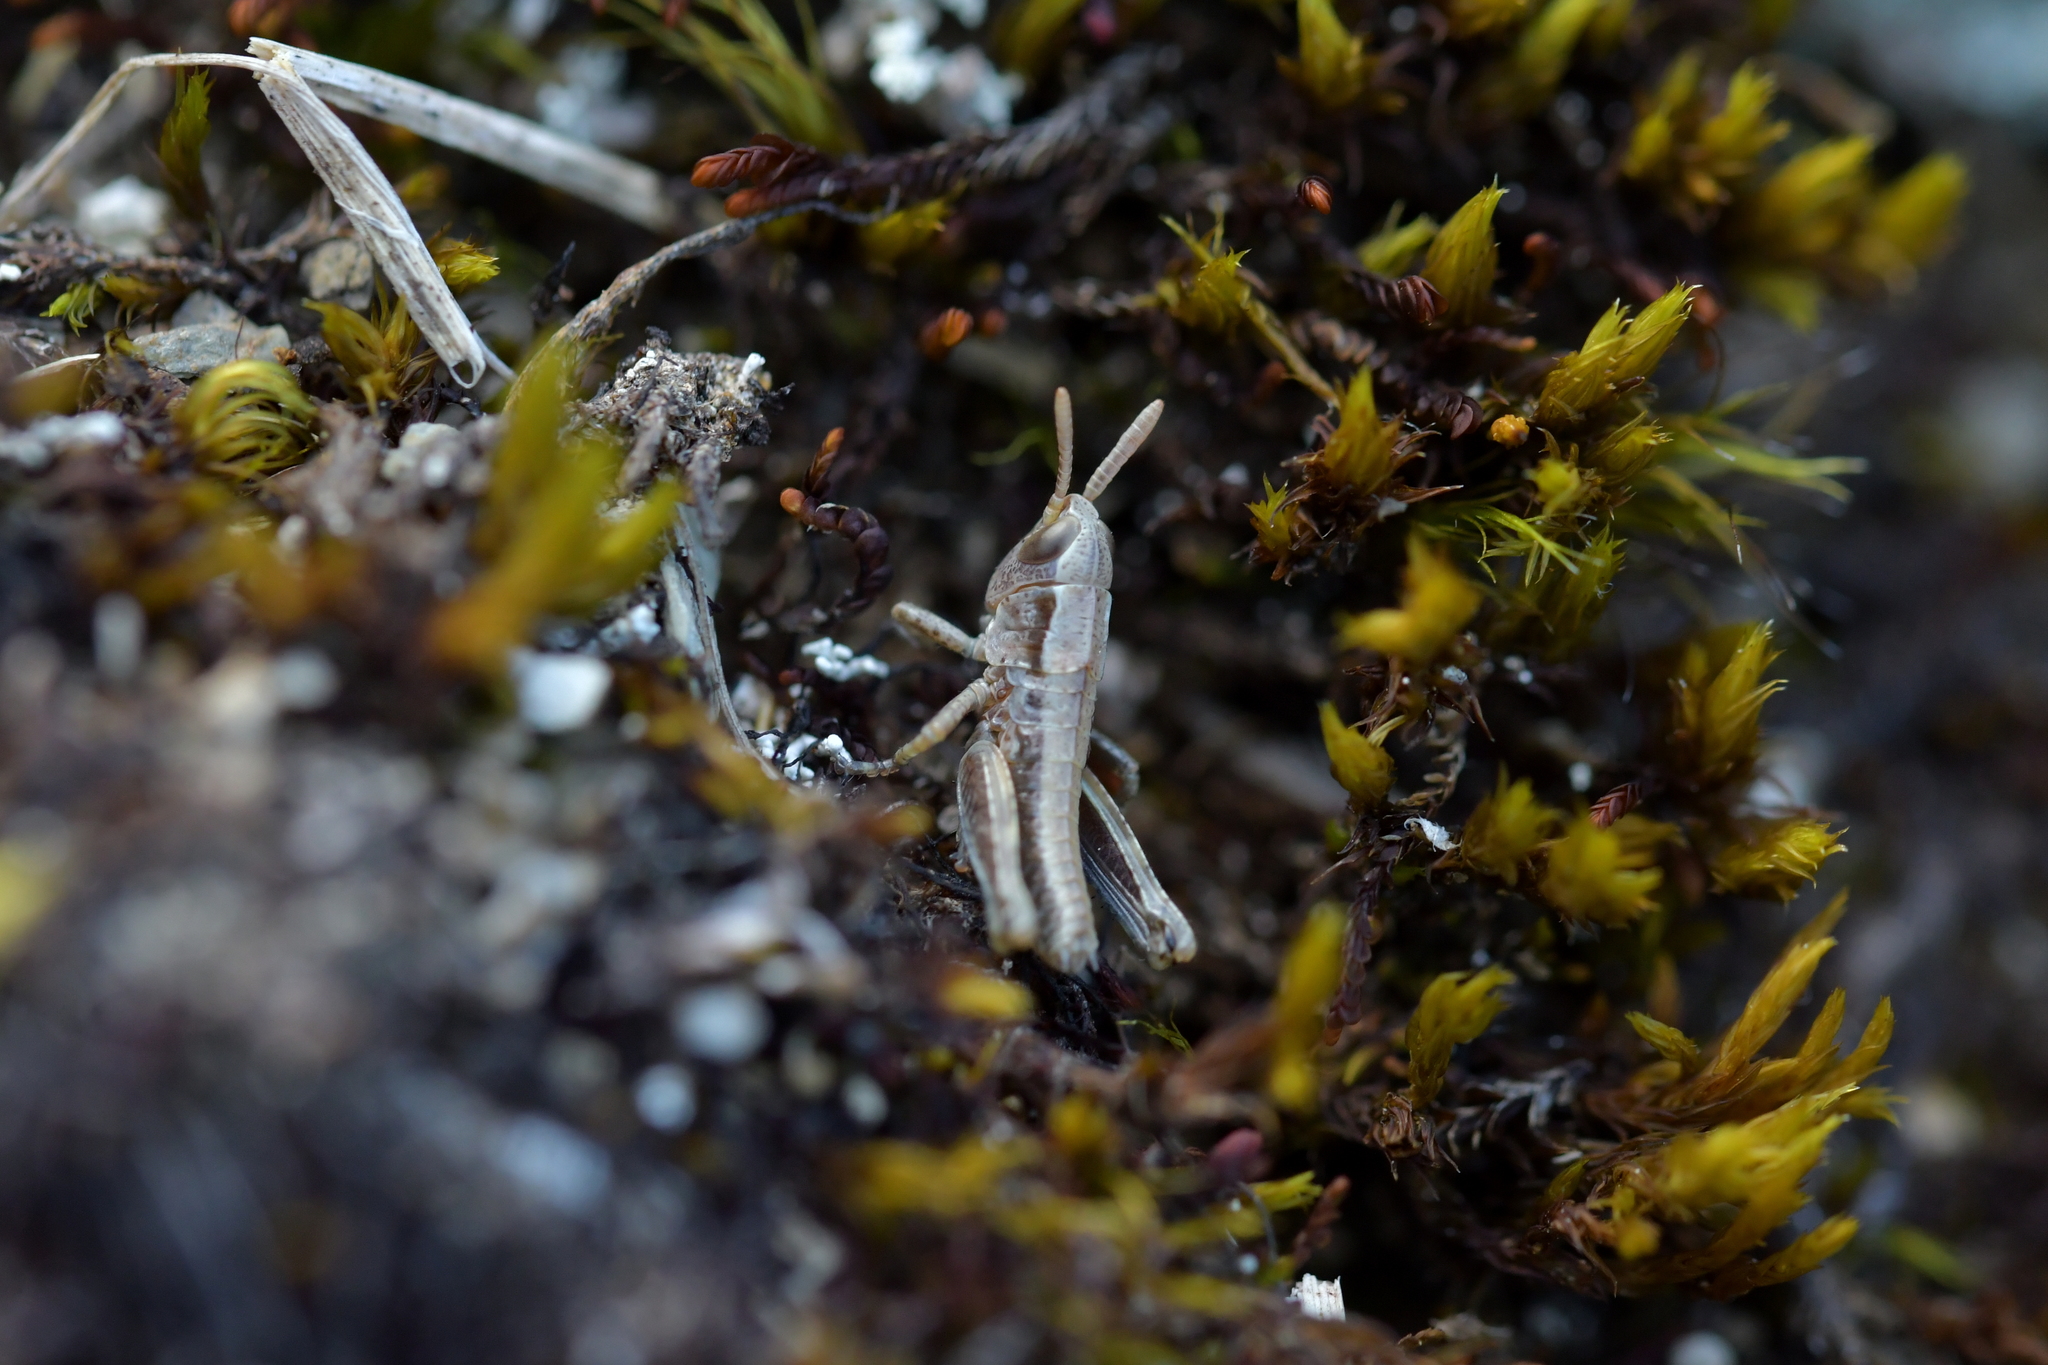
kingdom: Animalia
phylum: Arthropoda
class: Insecta
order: Orthoptera
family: Acrididae
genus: Sigaus
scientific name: Sigaus piliferus
